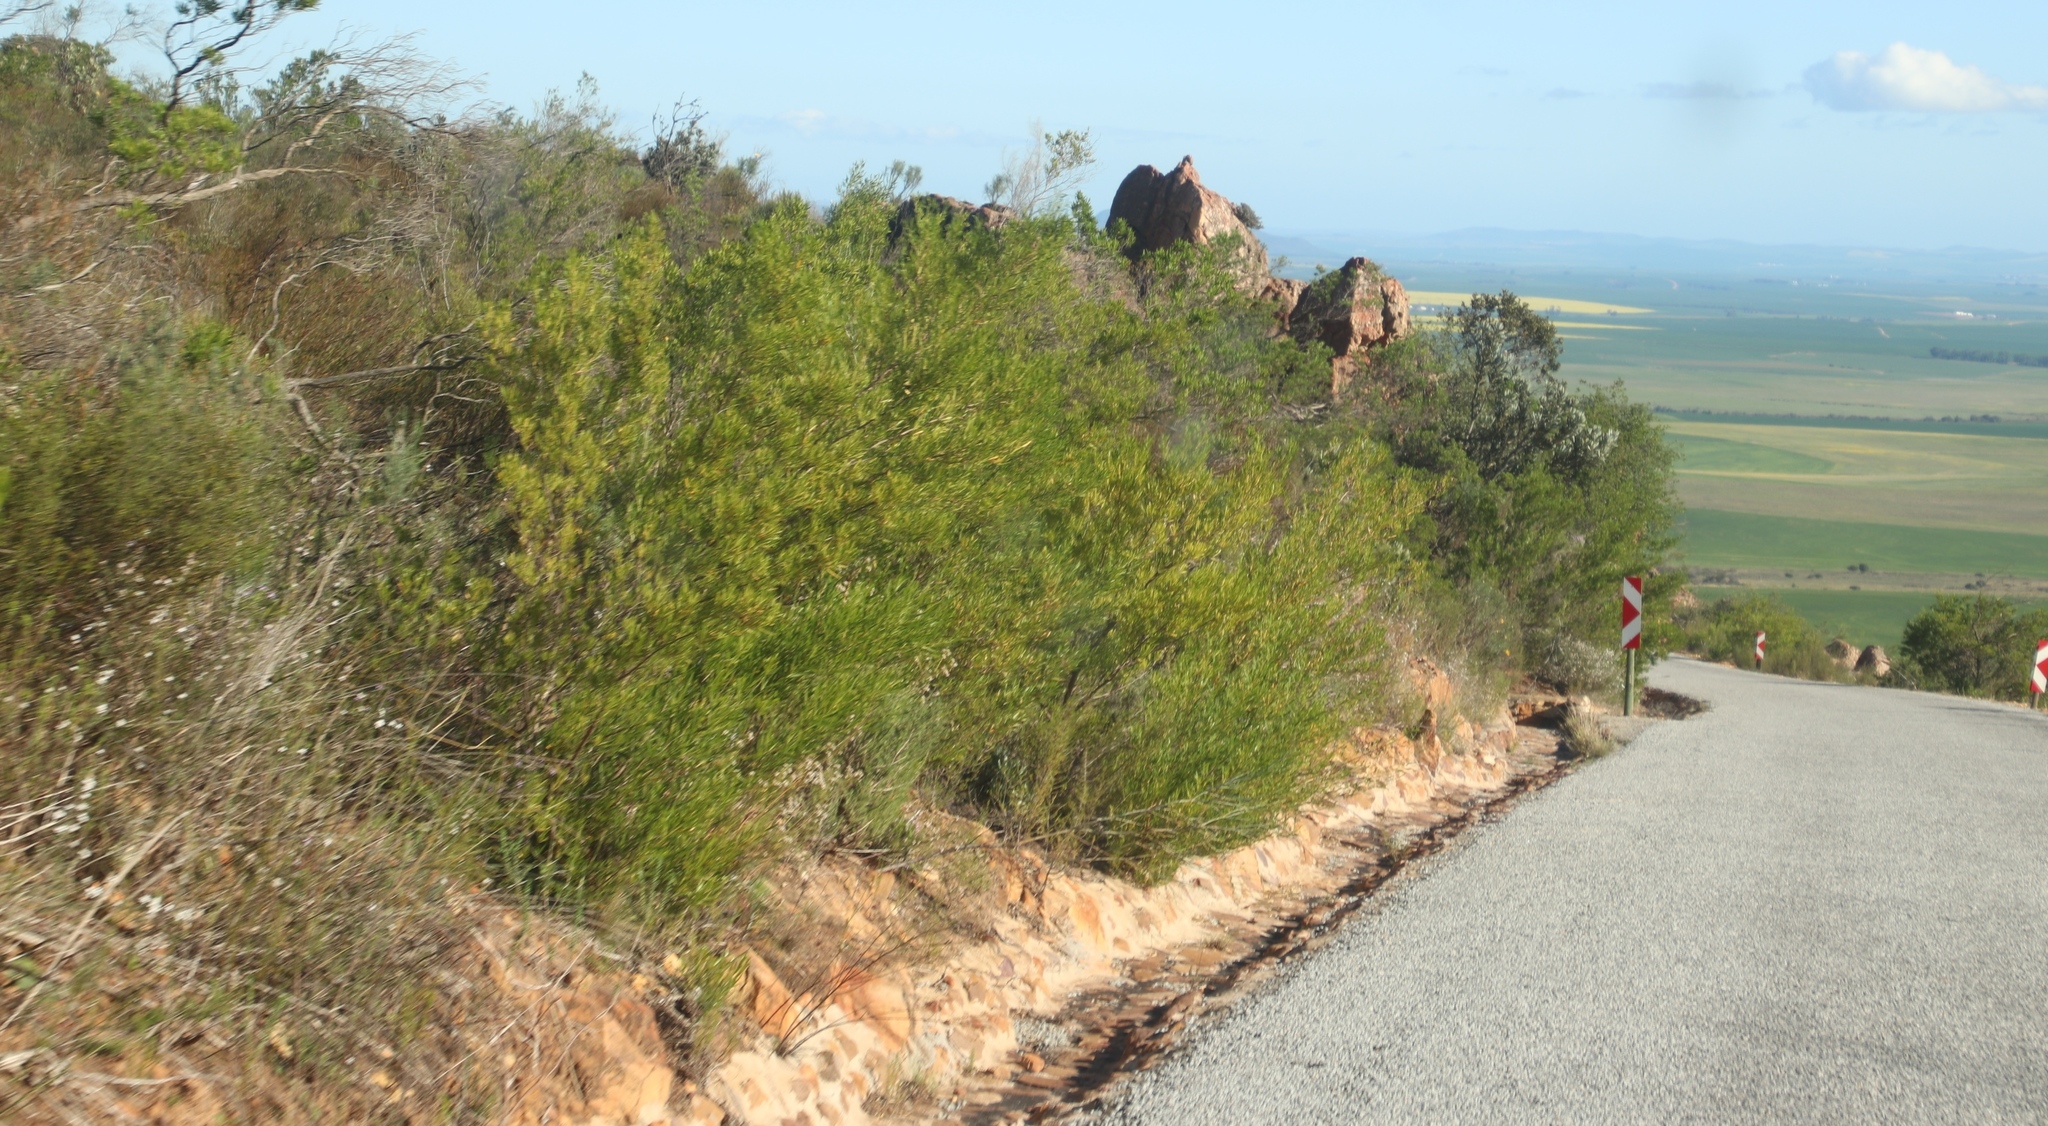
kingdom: Plantae
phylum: Tracheophyta
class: Magnoliopsida
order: Sapindales
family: Sapindaceae
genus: Dodonaea
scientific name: Dodonaea viscosa
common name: Hopbush
